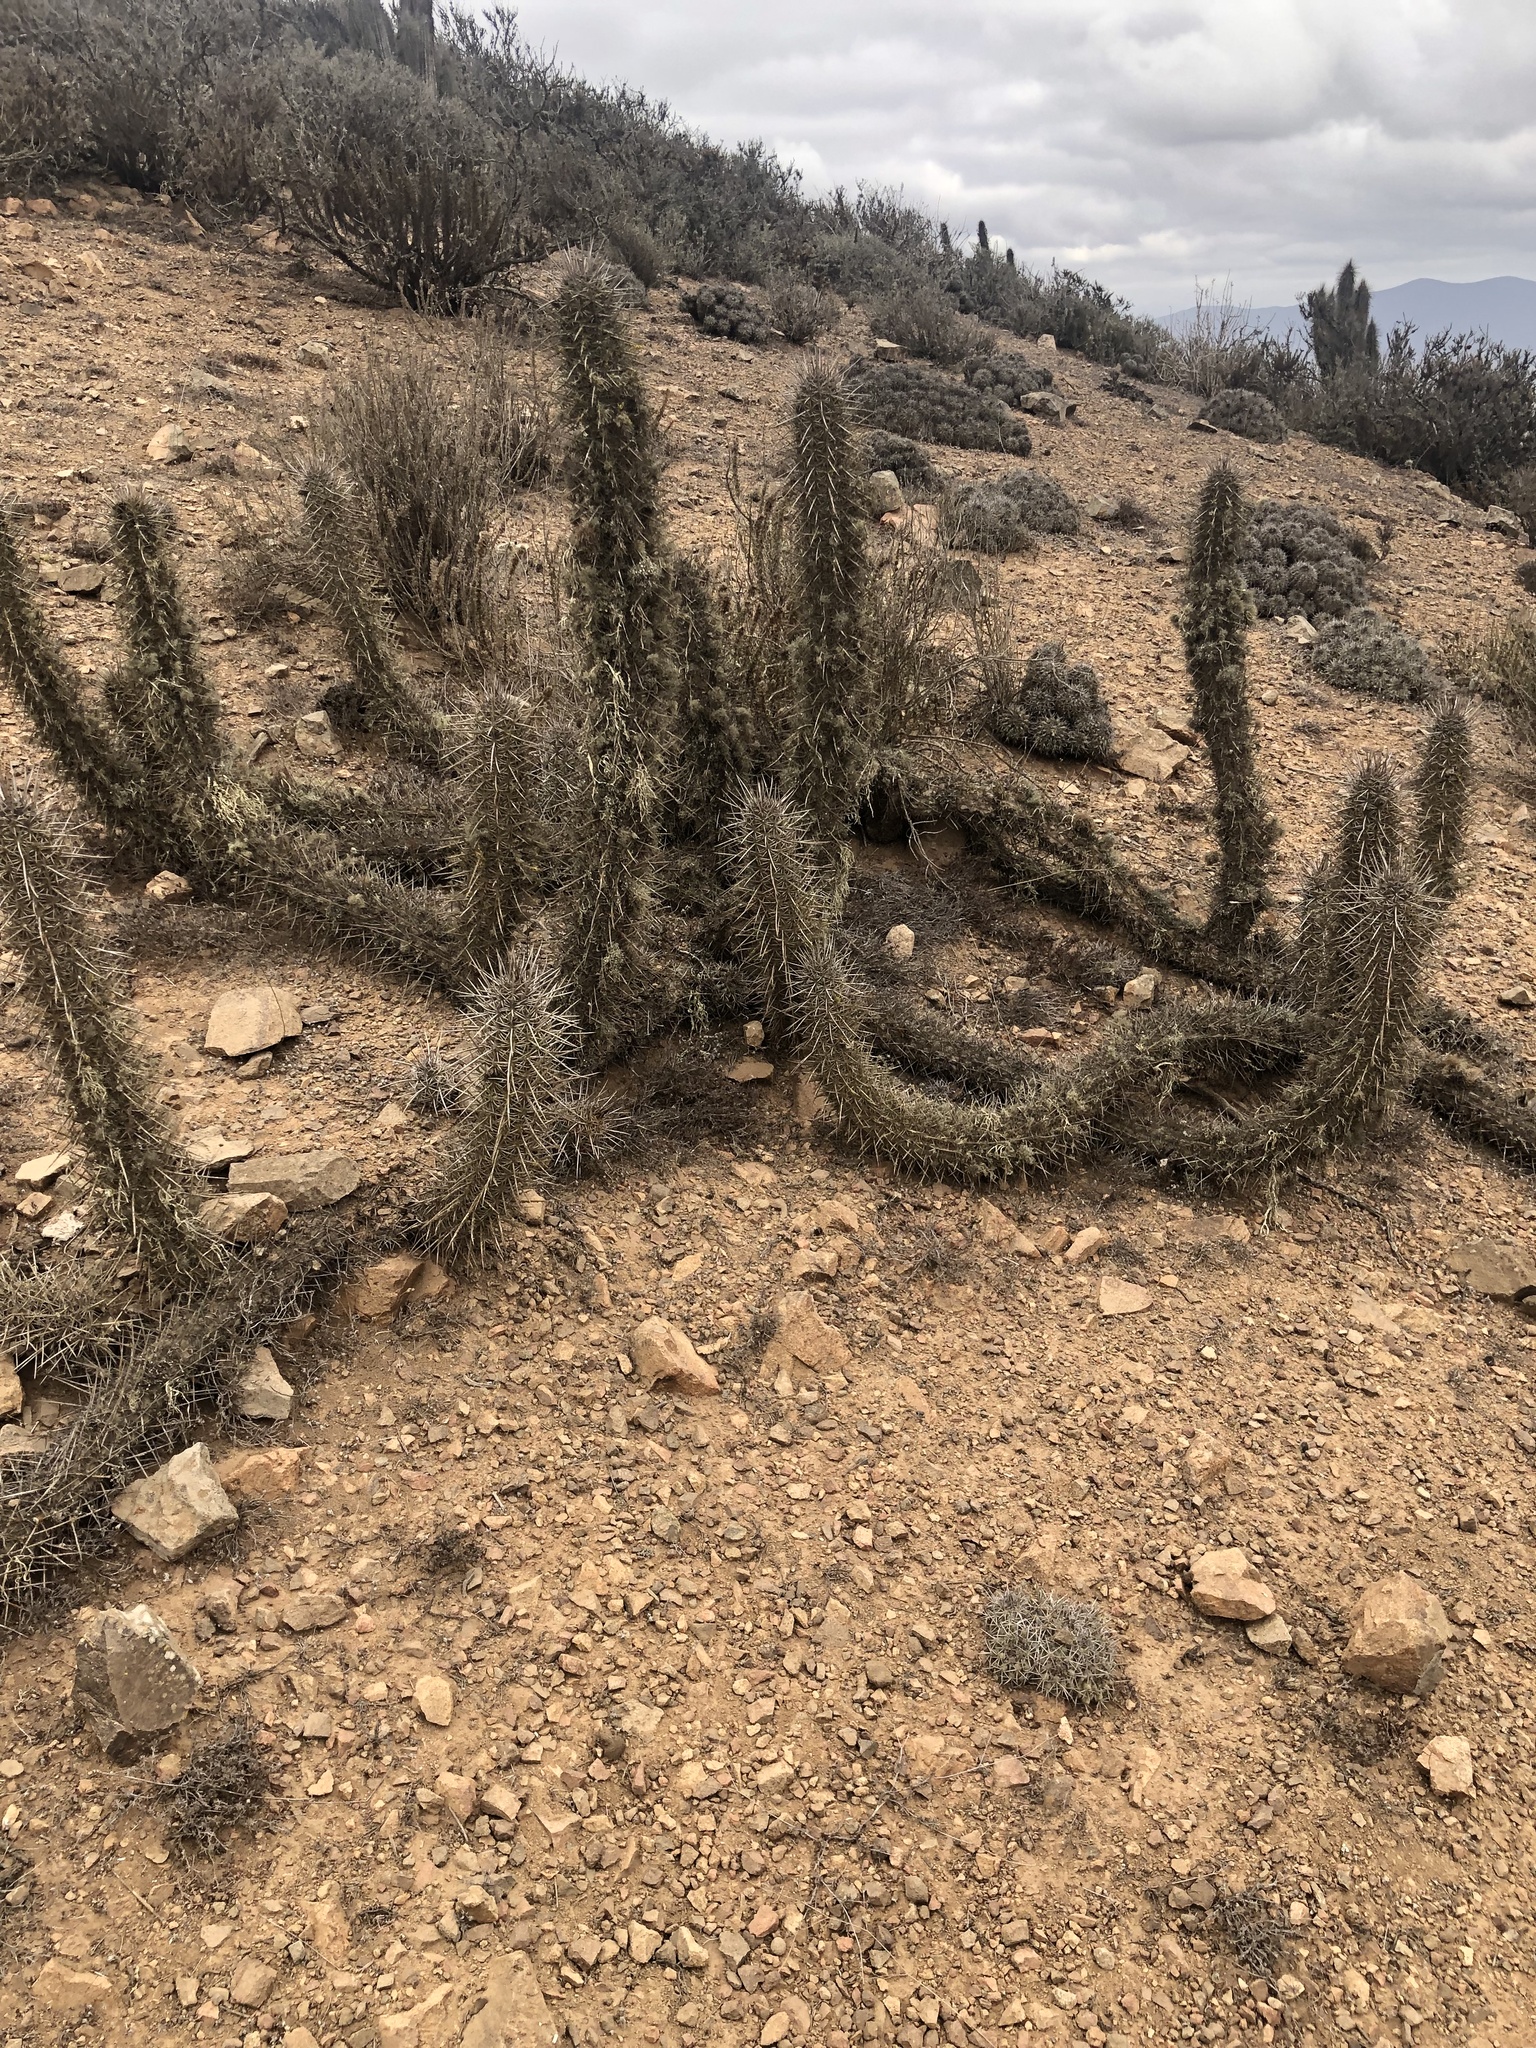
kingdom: Plantae
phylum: Tracheophyta
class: Magnoliopsida
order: Caryophyllales
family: Cactaceae
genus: Leucostele
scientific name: Leucostele deserticola
